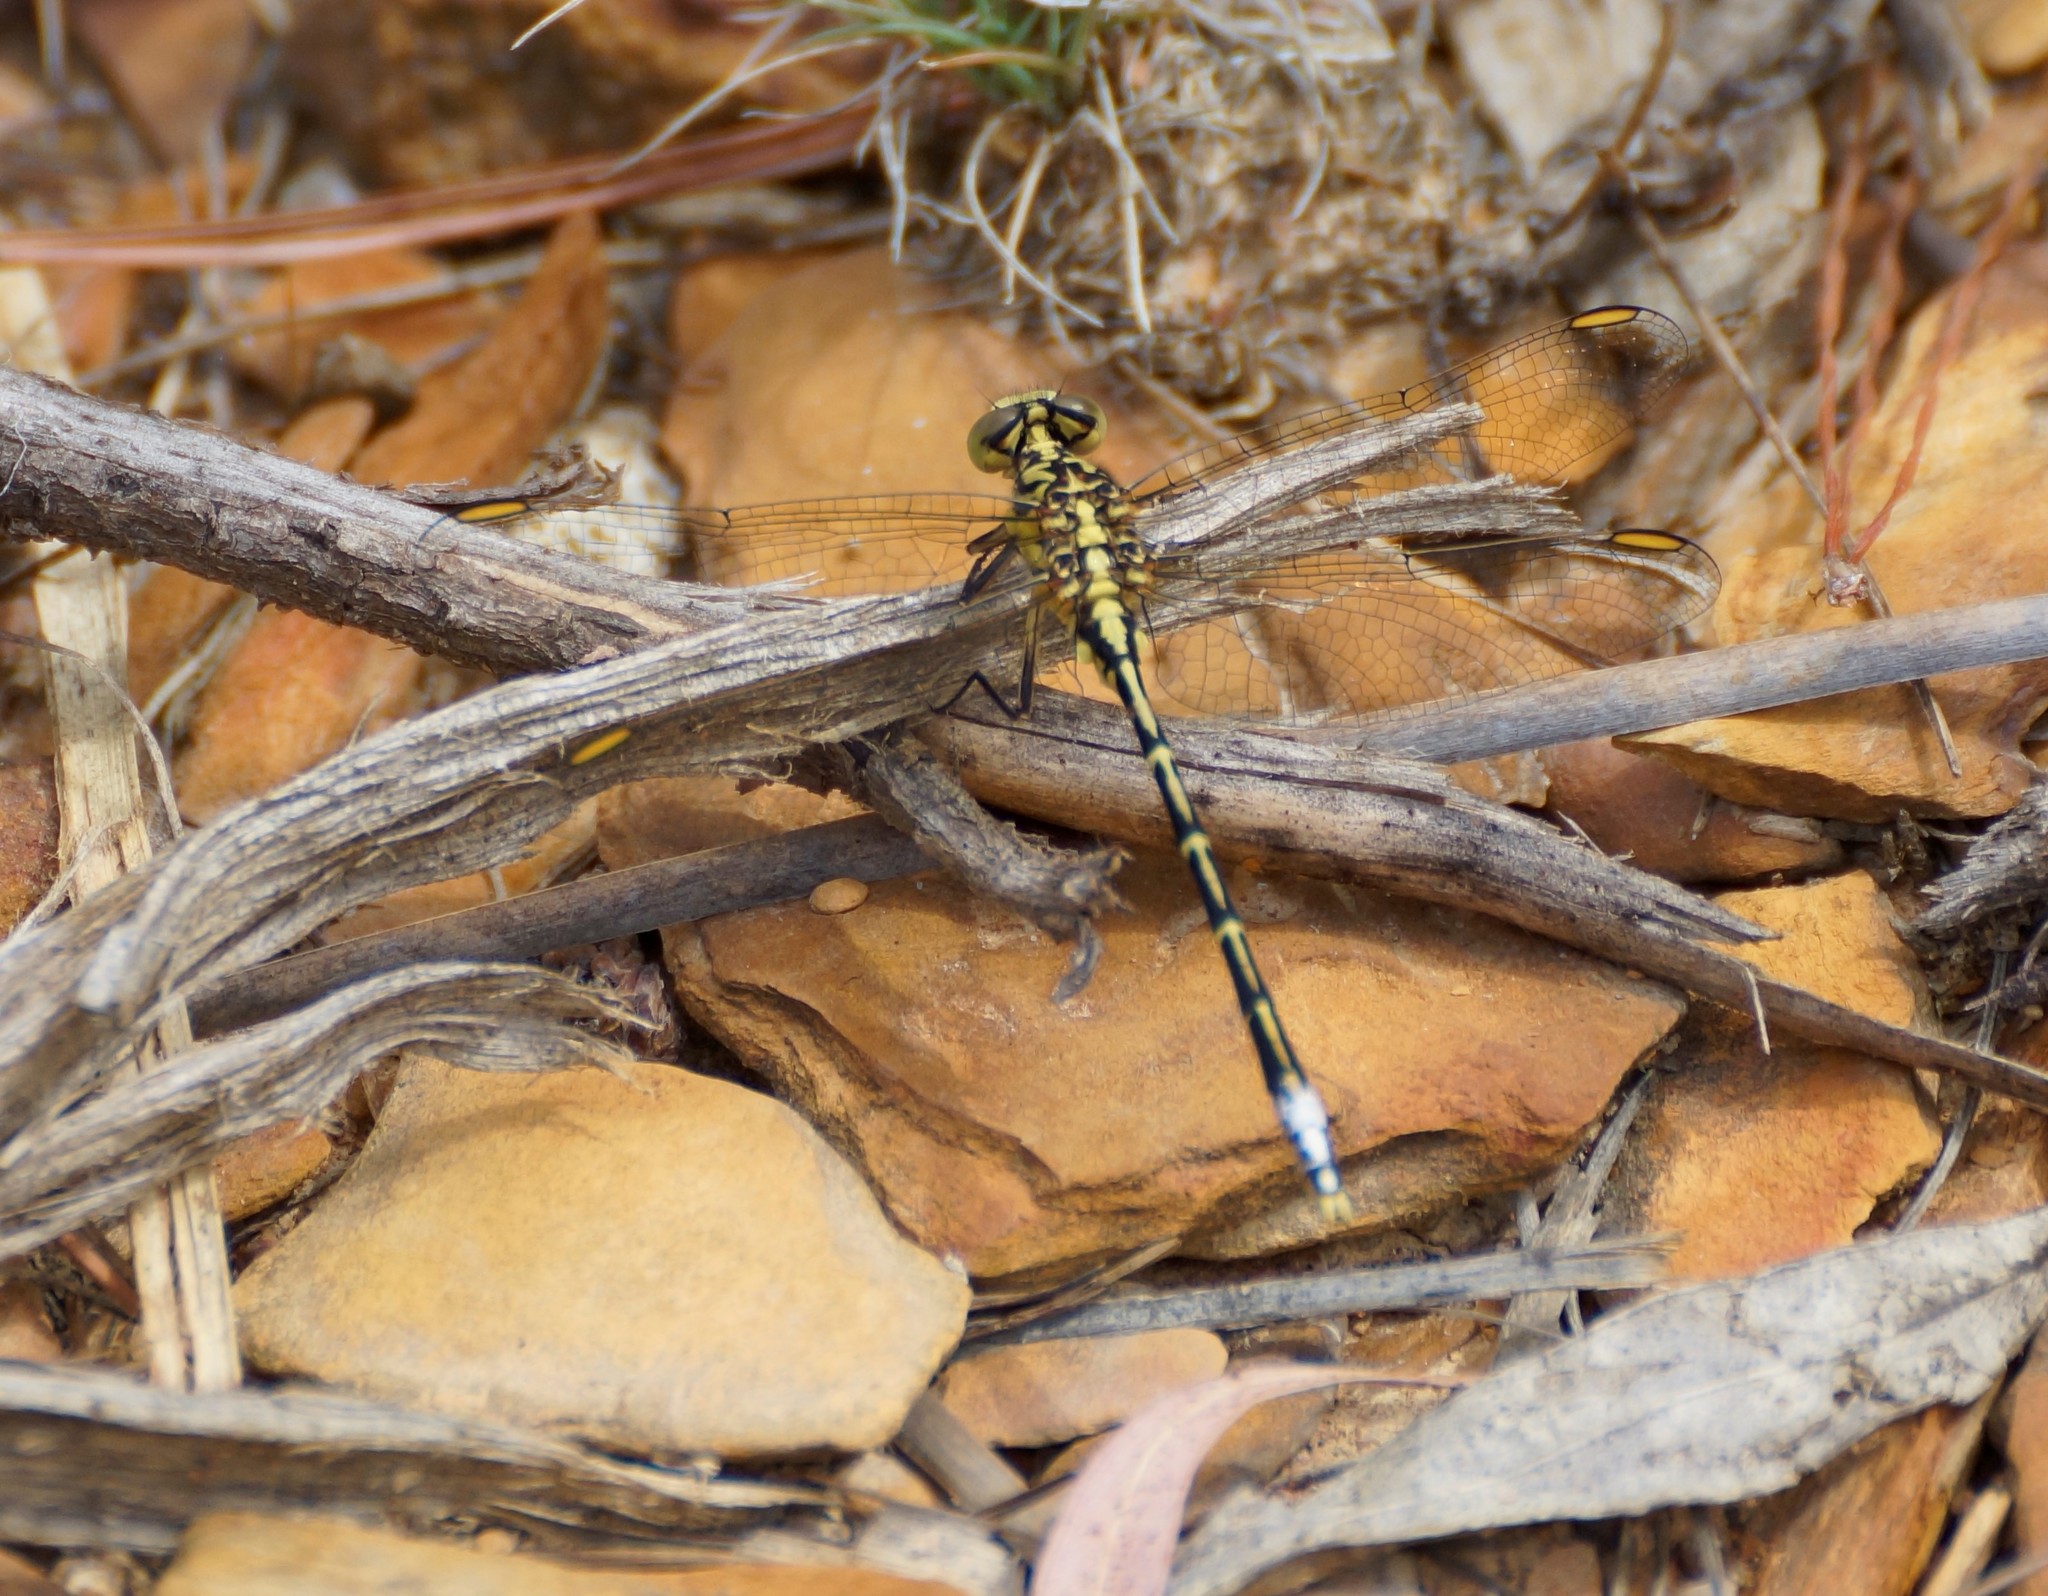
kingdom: Animalia
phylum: Arthropoda
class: Insecta
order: Odonata
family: Gomphidae
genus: Austrogomphus
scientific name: Austrogomphus guerini
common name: Yellow-striped hunter
